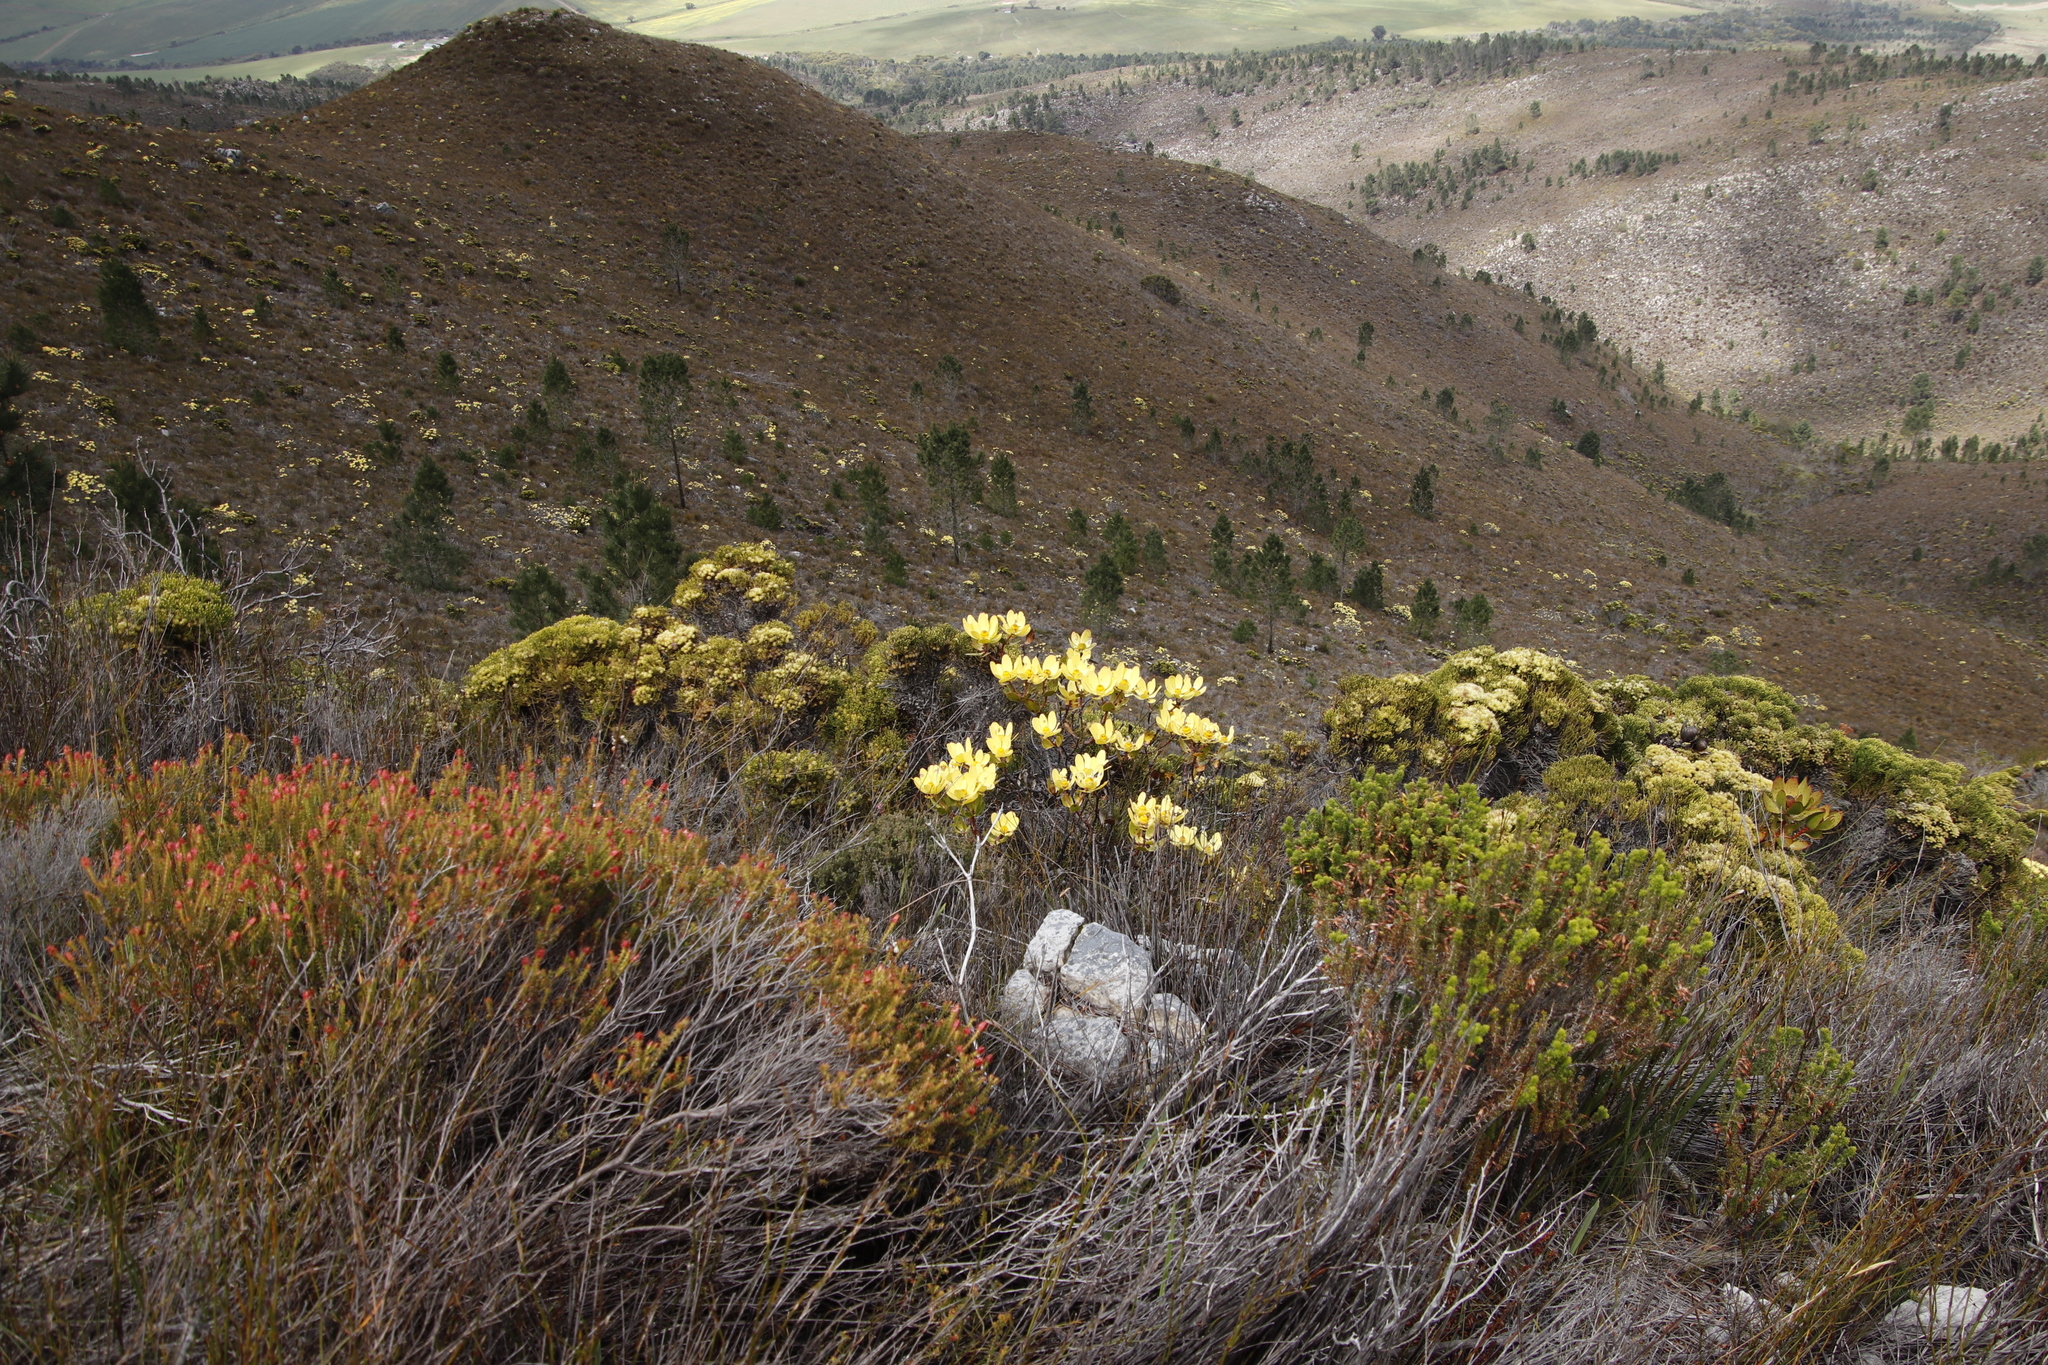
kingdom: Plantae
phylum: Tracheophyta
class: Pinopsida
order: Pinales
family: Pinaceae
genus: Pinus
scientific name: Pinus pinaster
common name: Maritime pine
